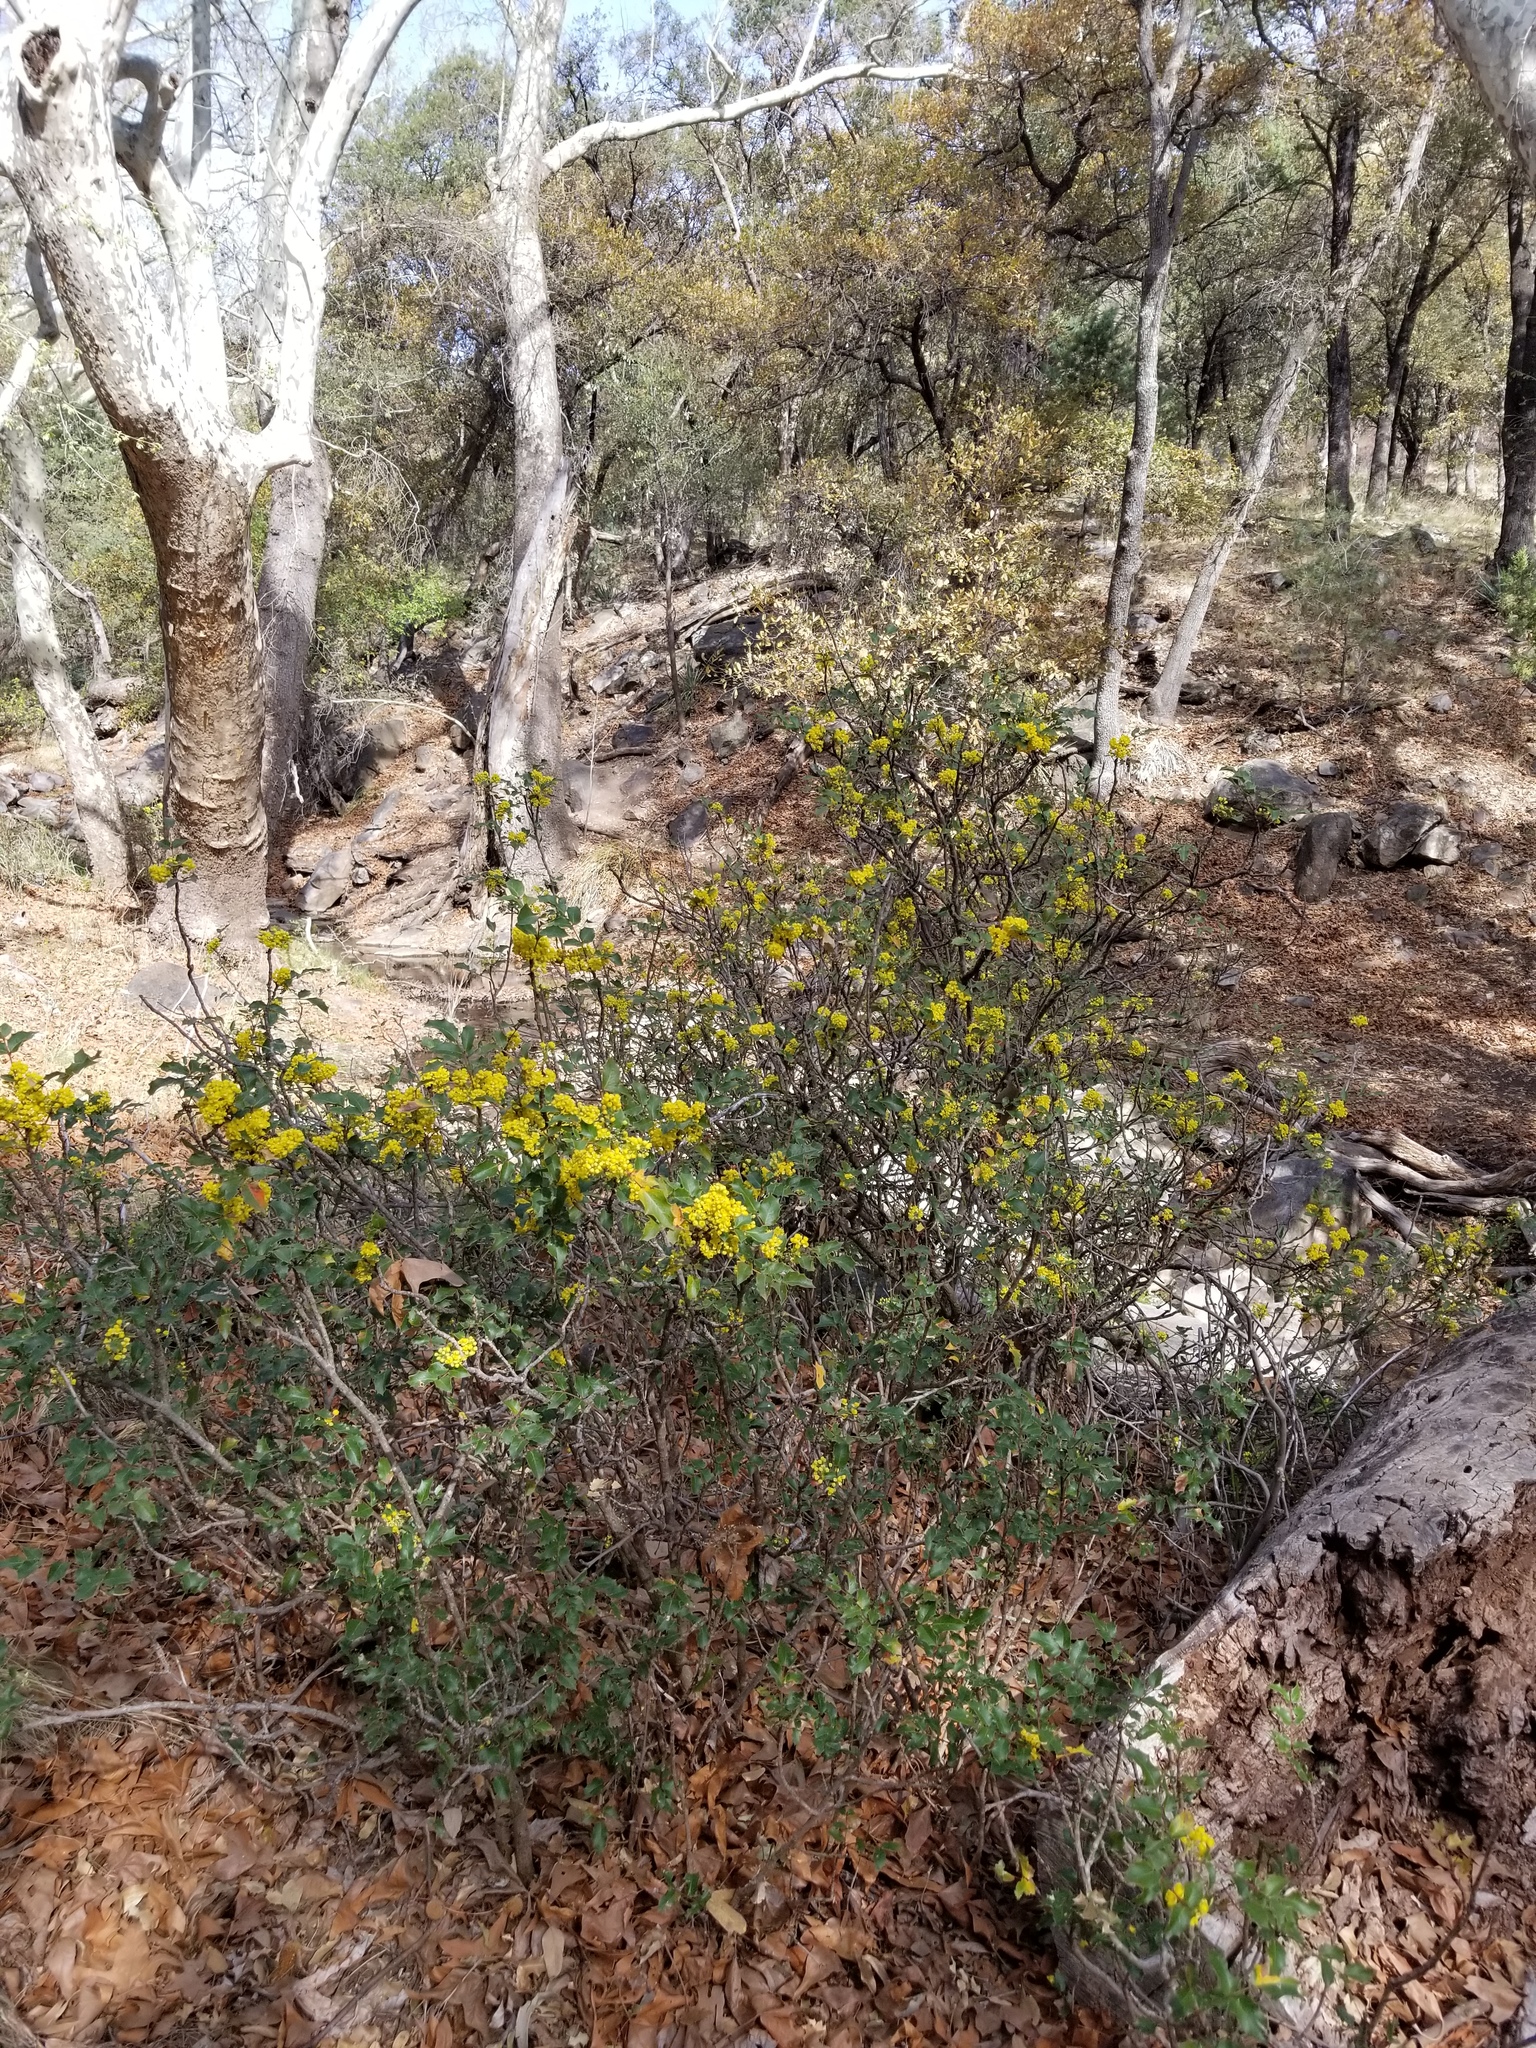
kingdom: Plantae
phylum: Tracheophyta
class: Magnoliopsida
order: Ranunculales
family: Berberidaceae
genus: Mahonia
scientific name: Mahonia wilcoxii
